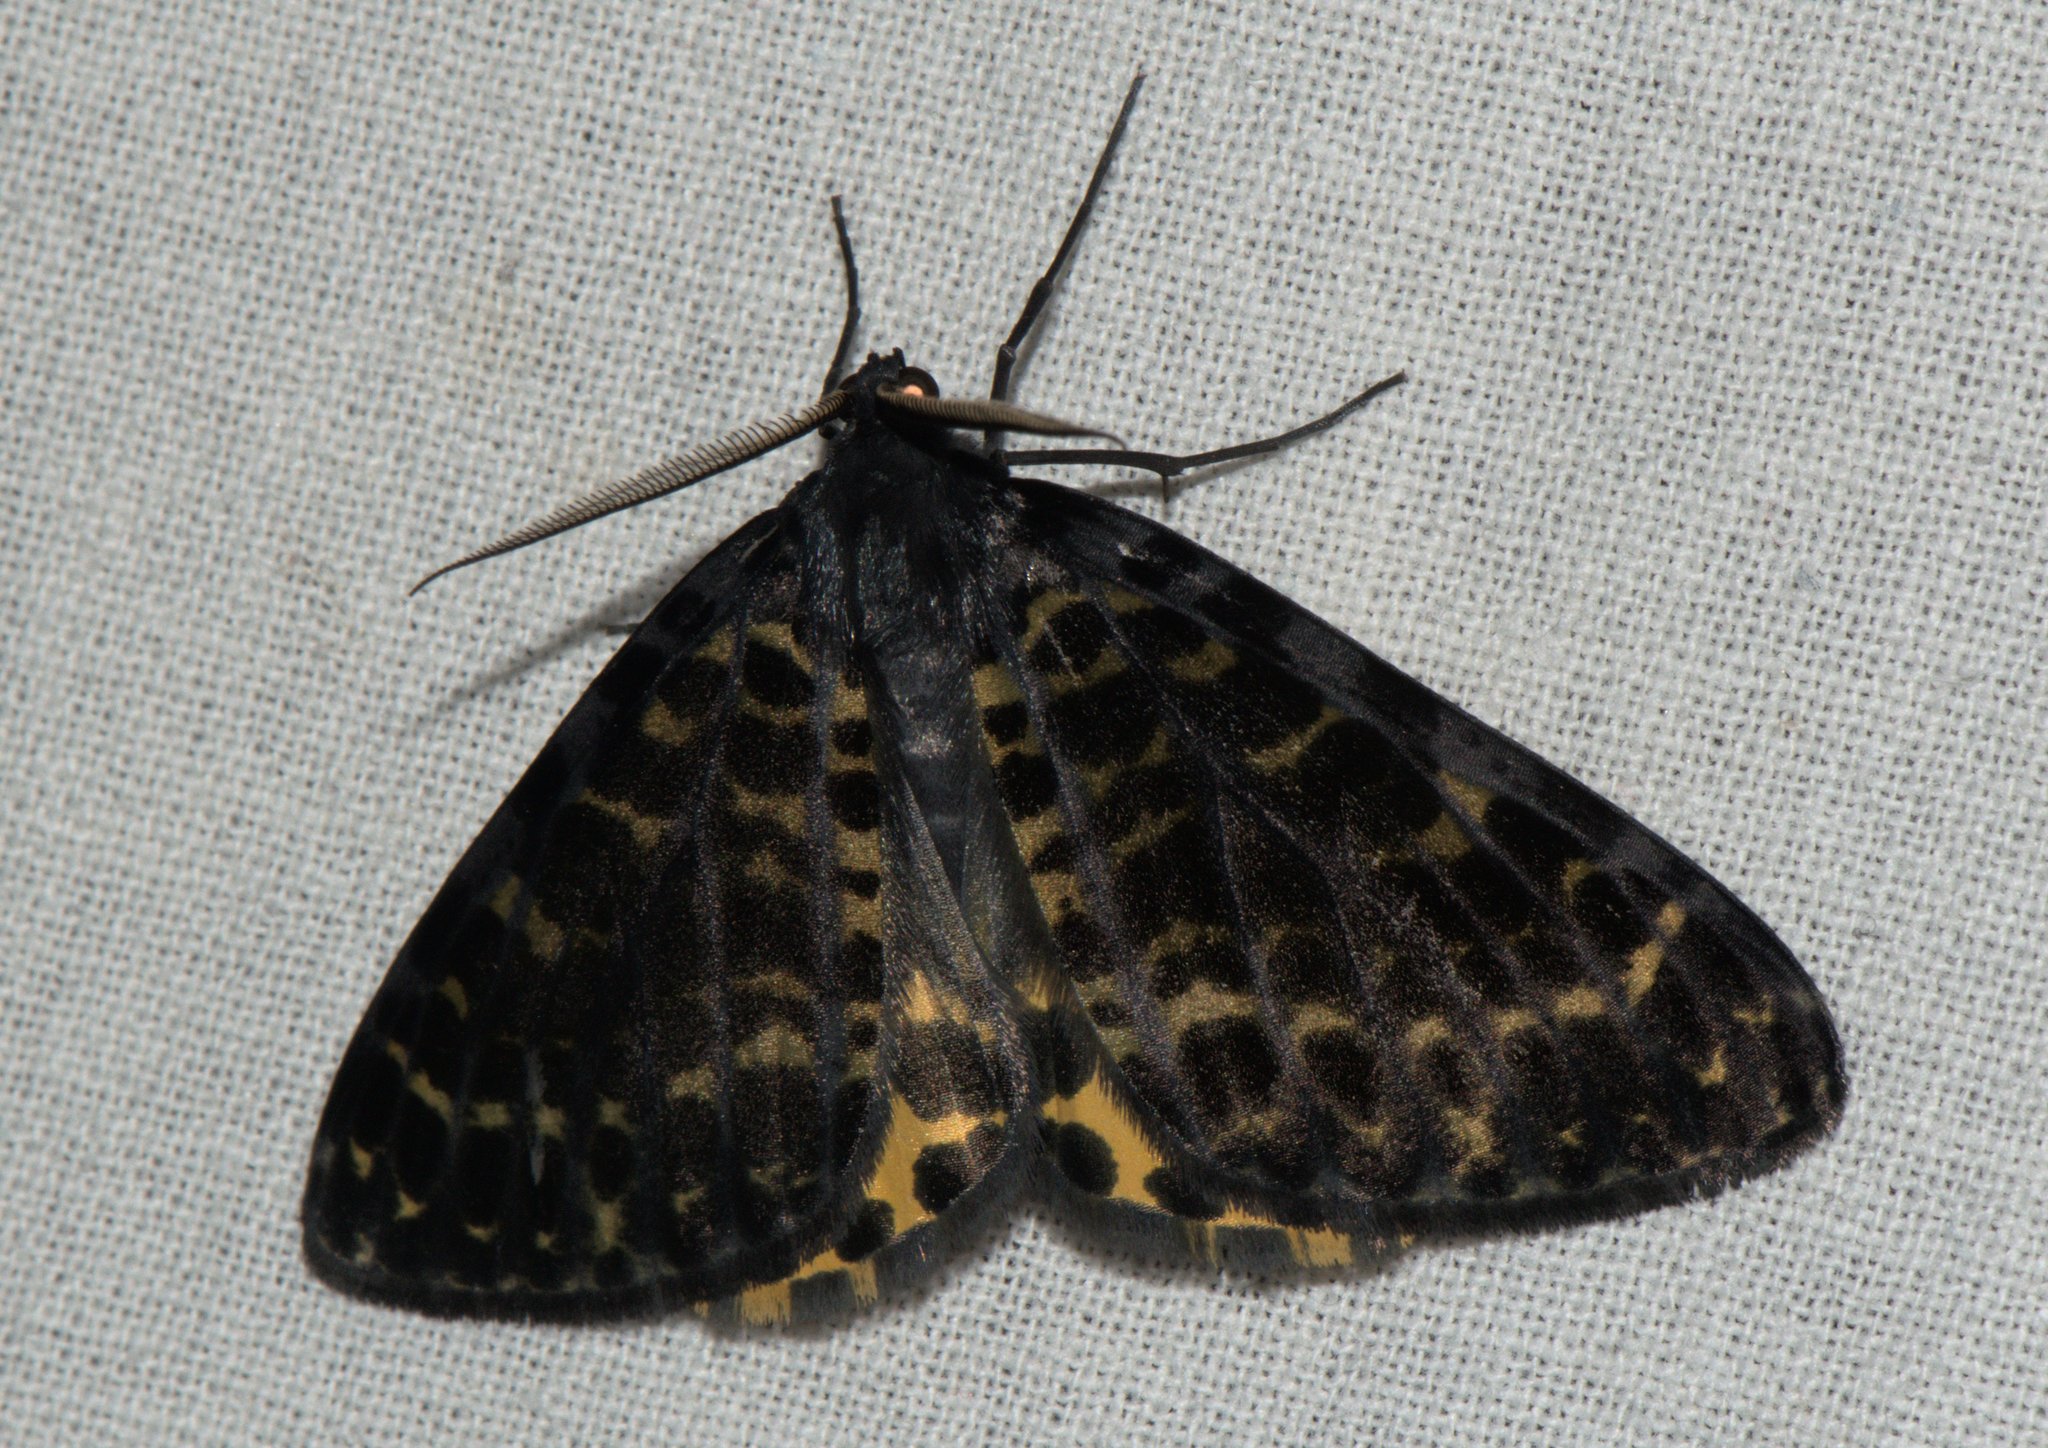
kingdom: Animalia
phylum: Arthropoda
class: Insecta
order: Lepidoptera
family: Geometridae
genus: Arichanna
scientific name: Arichanna flavinigra
